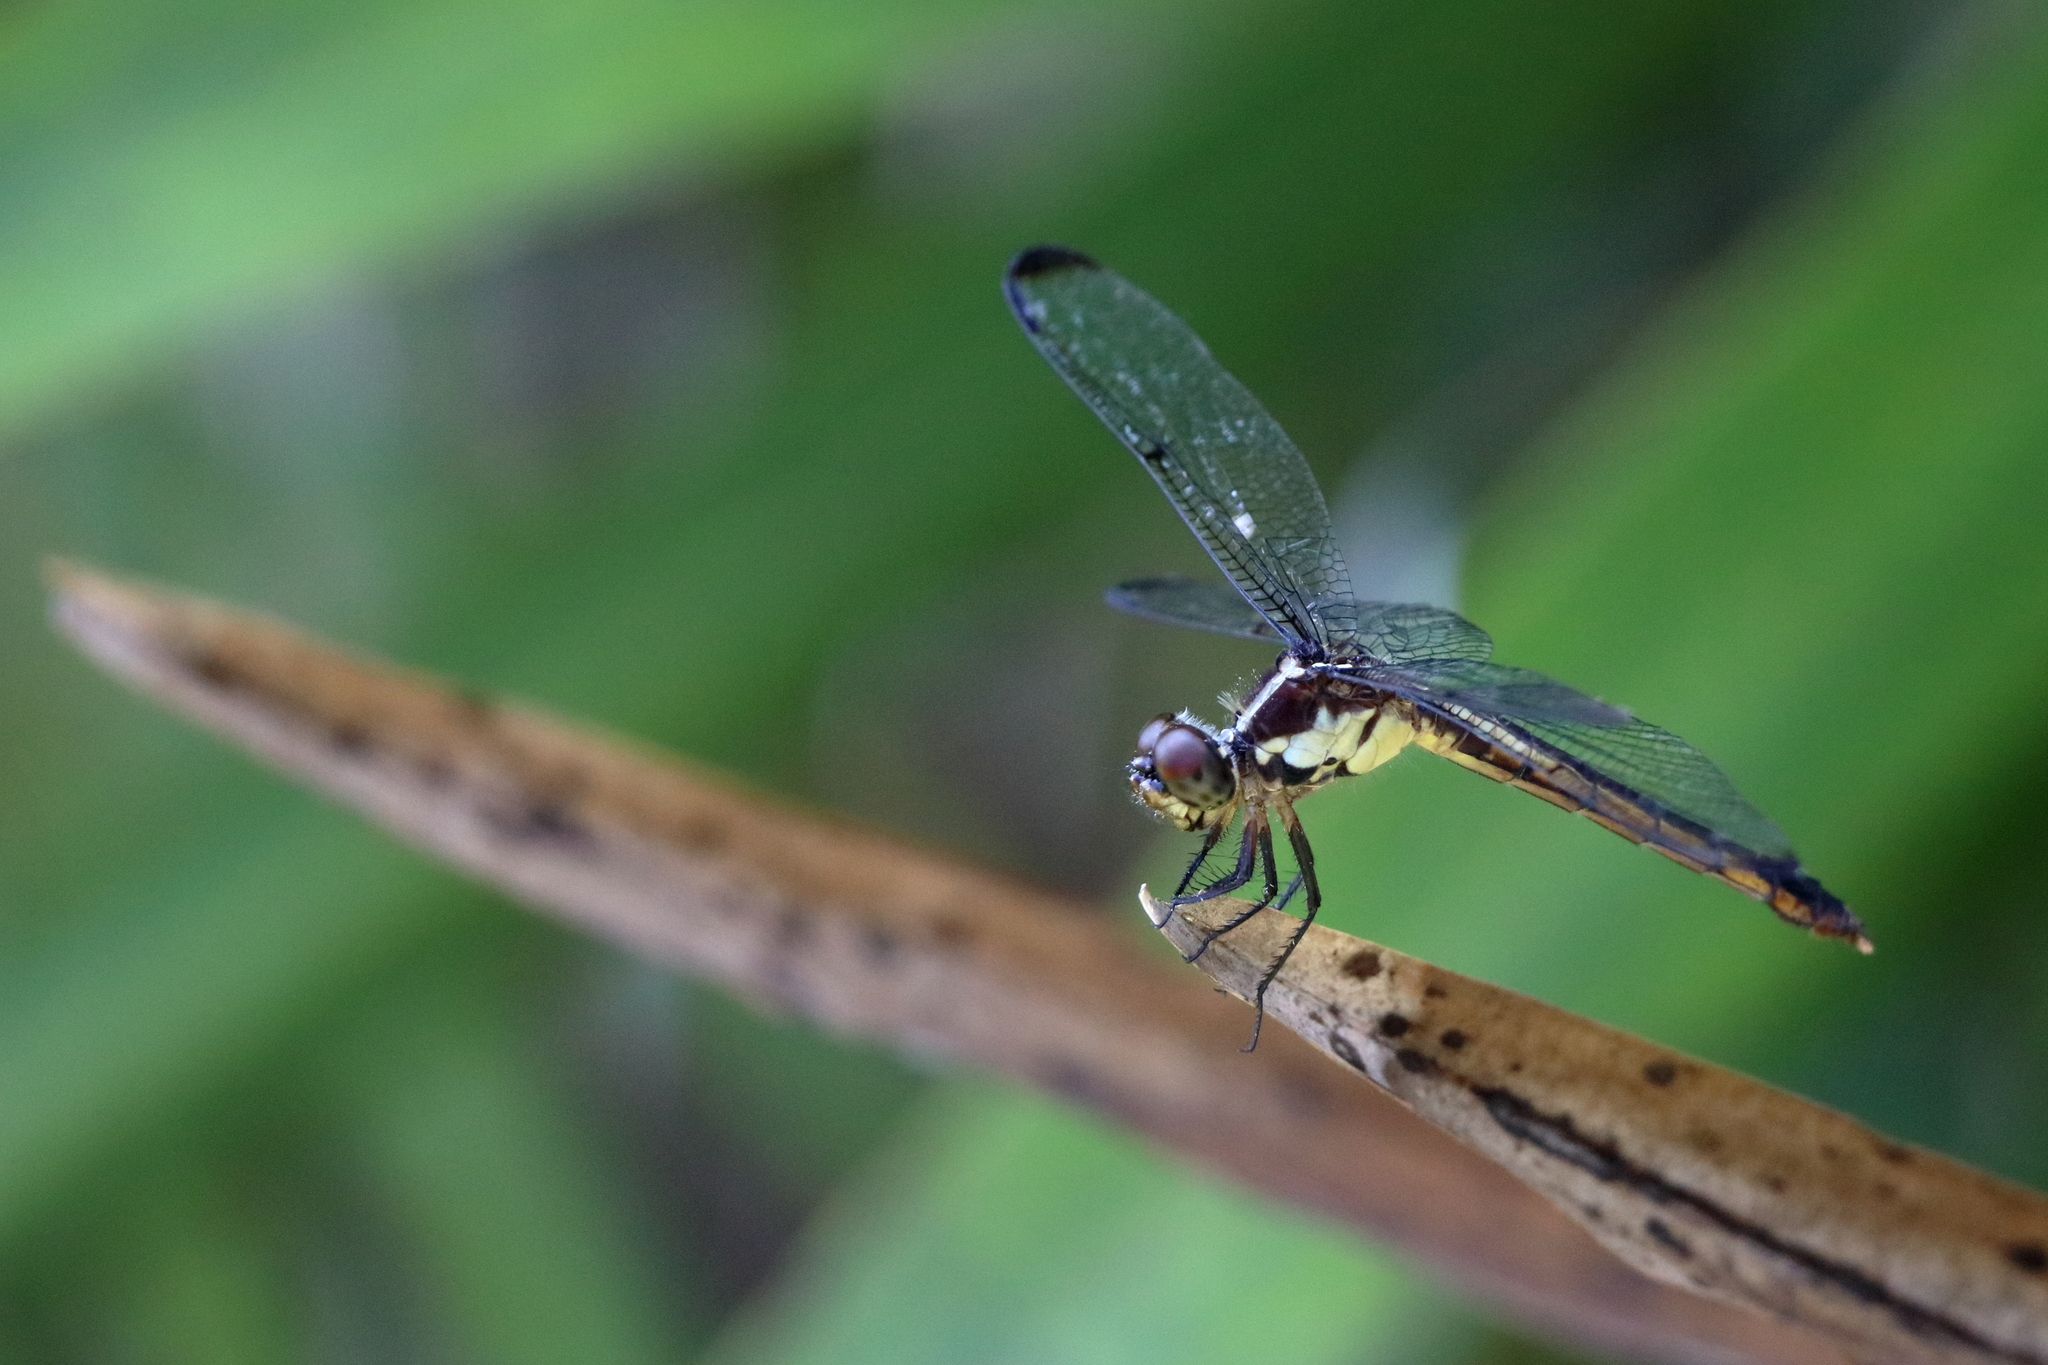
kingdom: Animalia
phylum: Arthropoda
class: Insecta
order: Odonata
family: Libellulidae
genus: Libellula
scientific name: Libellula incesta
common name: Slaty skimmer
